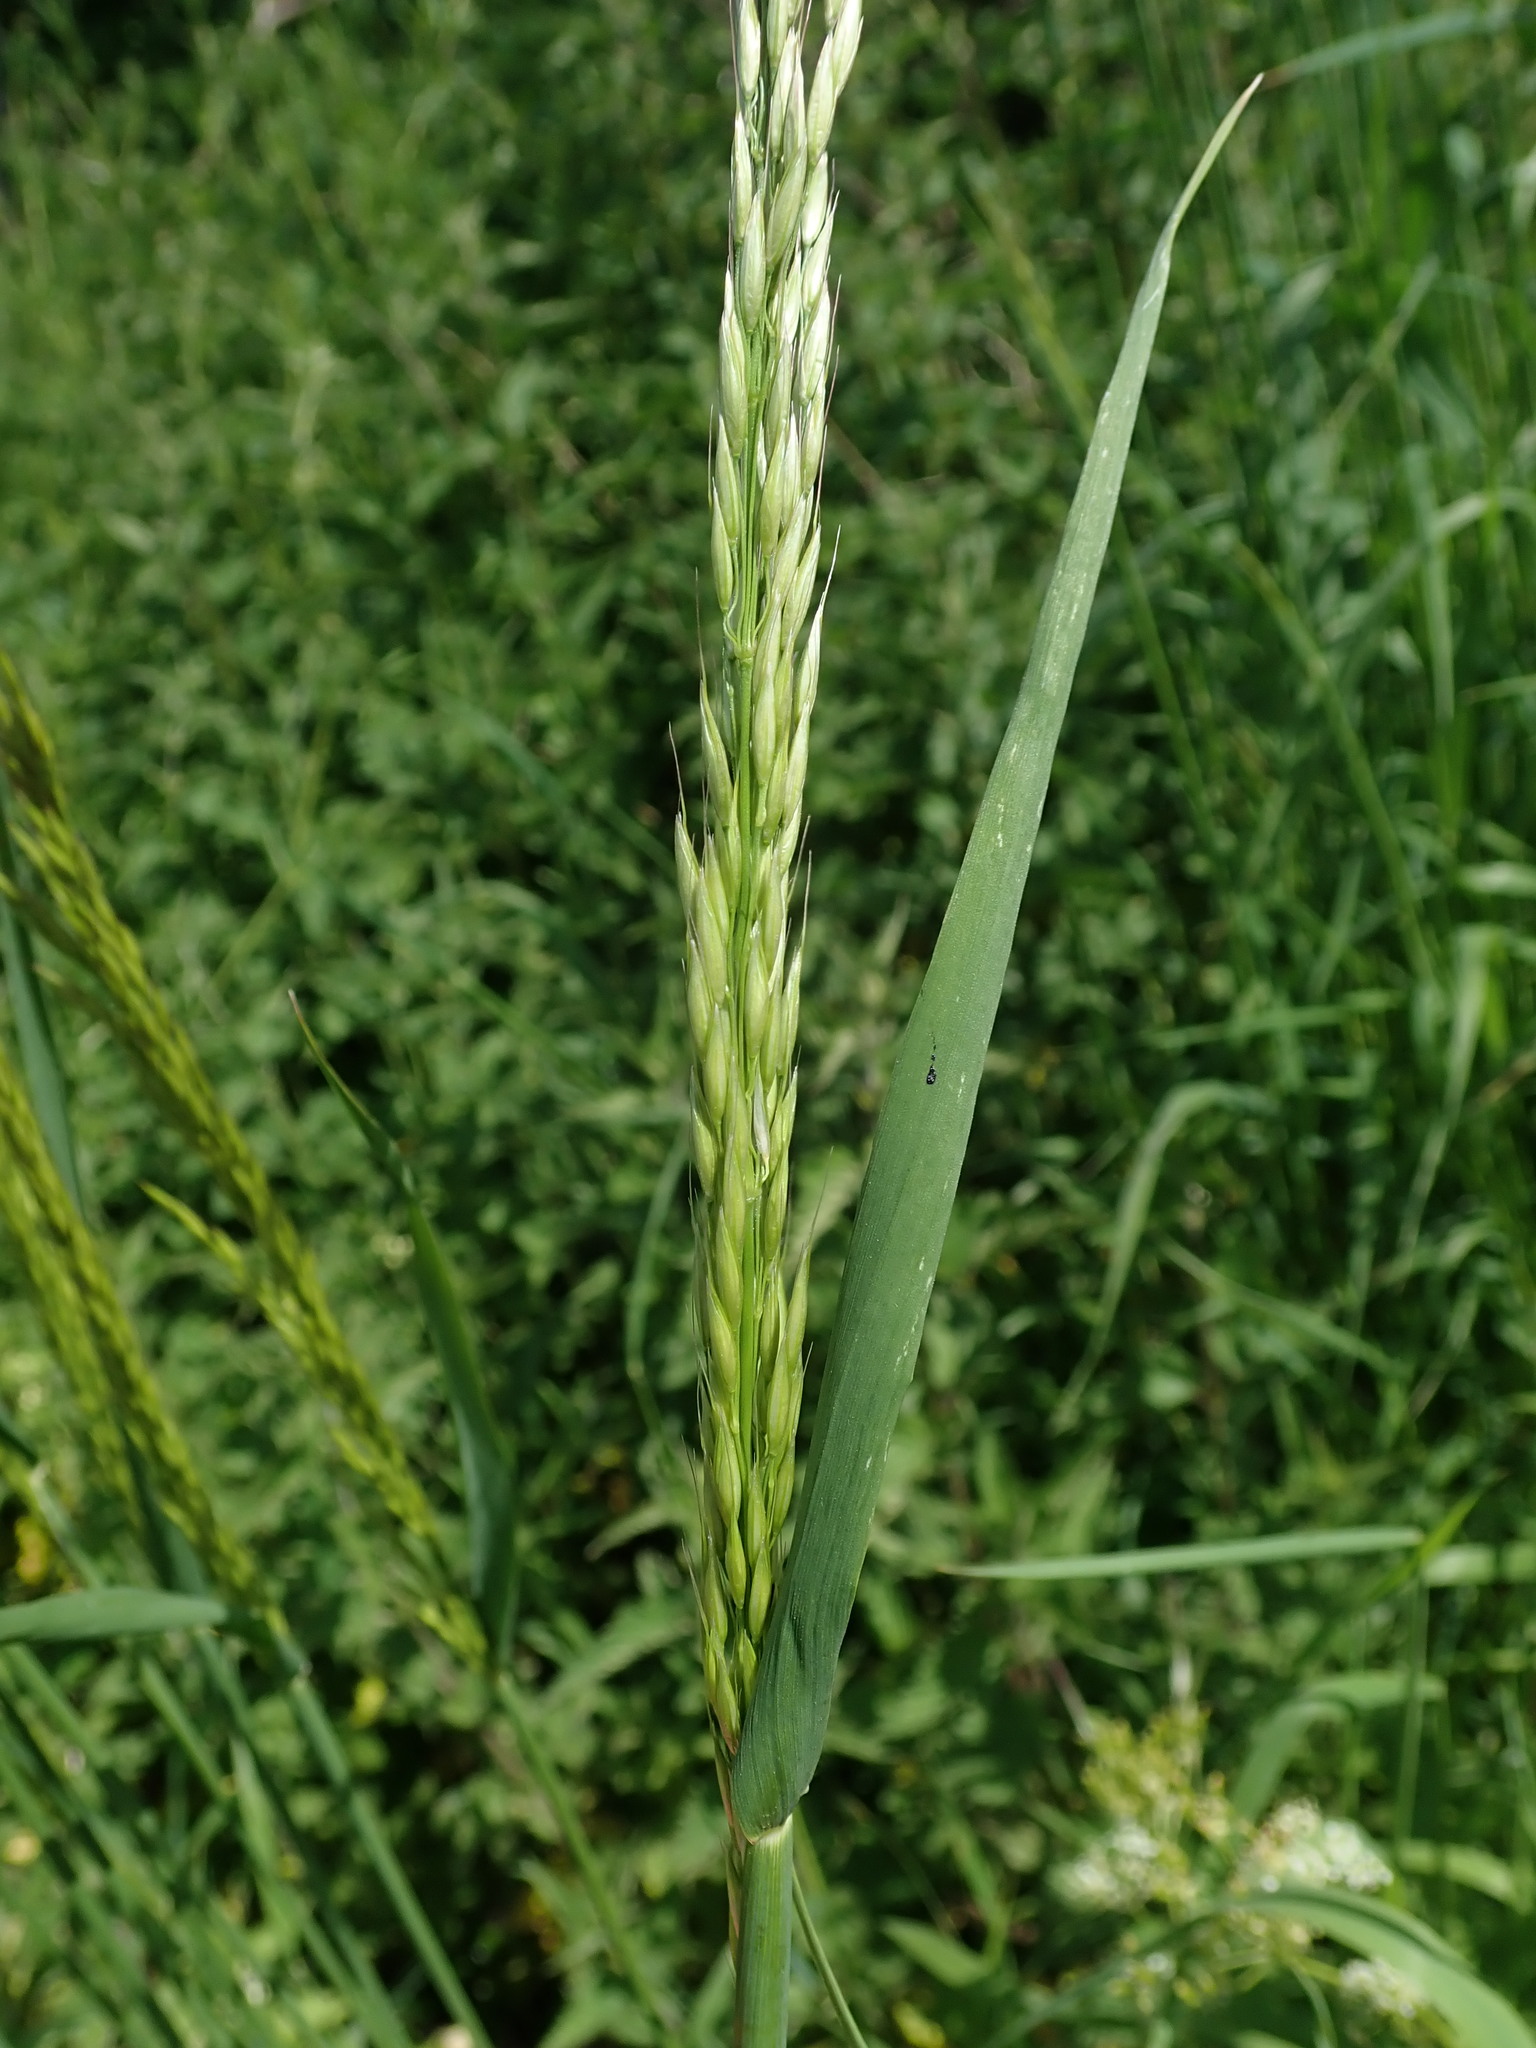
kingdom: Plantae
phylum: Tracheophyta
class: Liliopsida
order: Poales
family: Poaceae
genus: Arrhenatherum
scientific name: Arrhenatherum elatius
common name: Tall oatgrass
